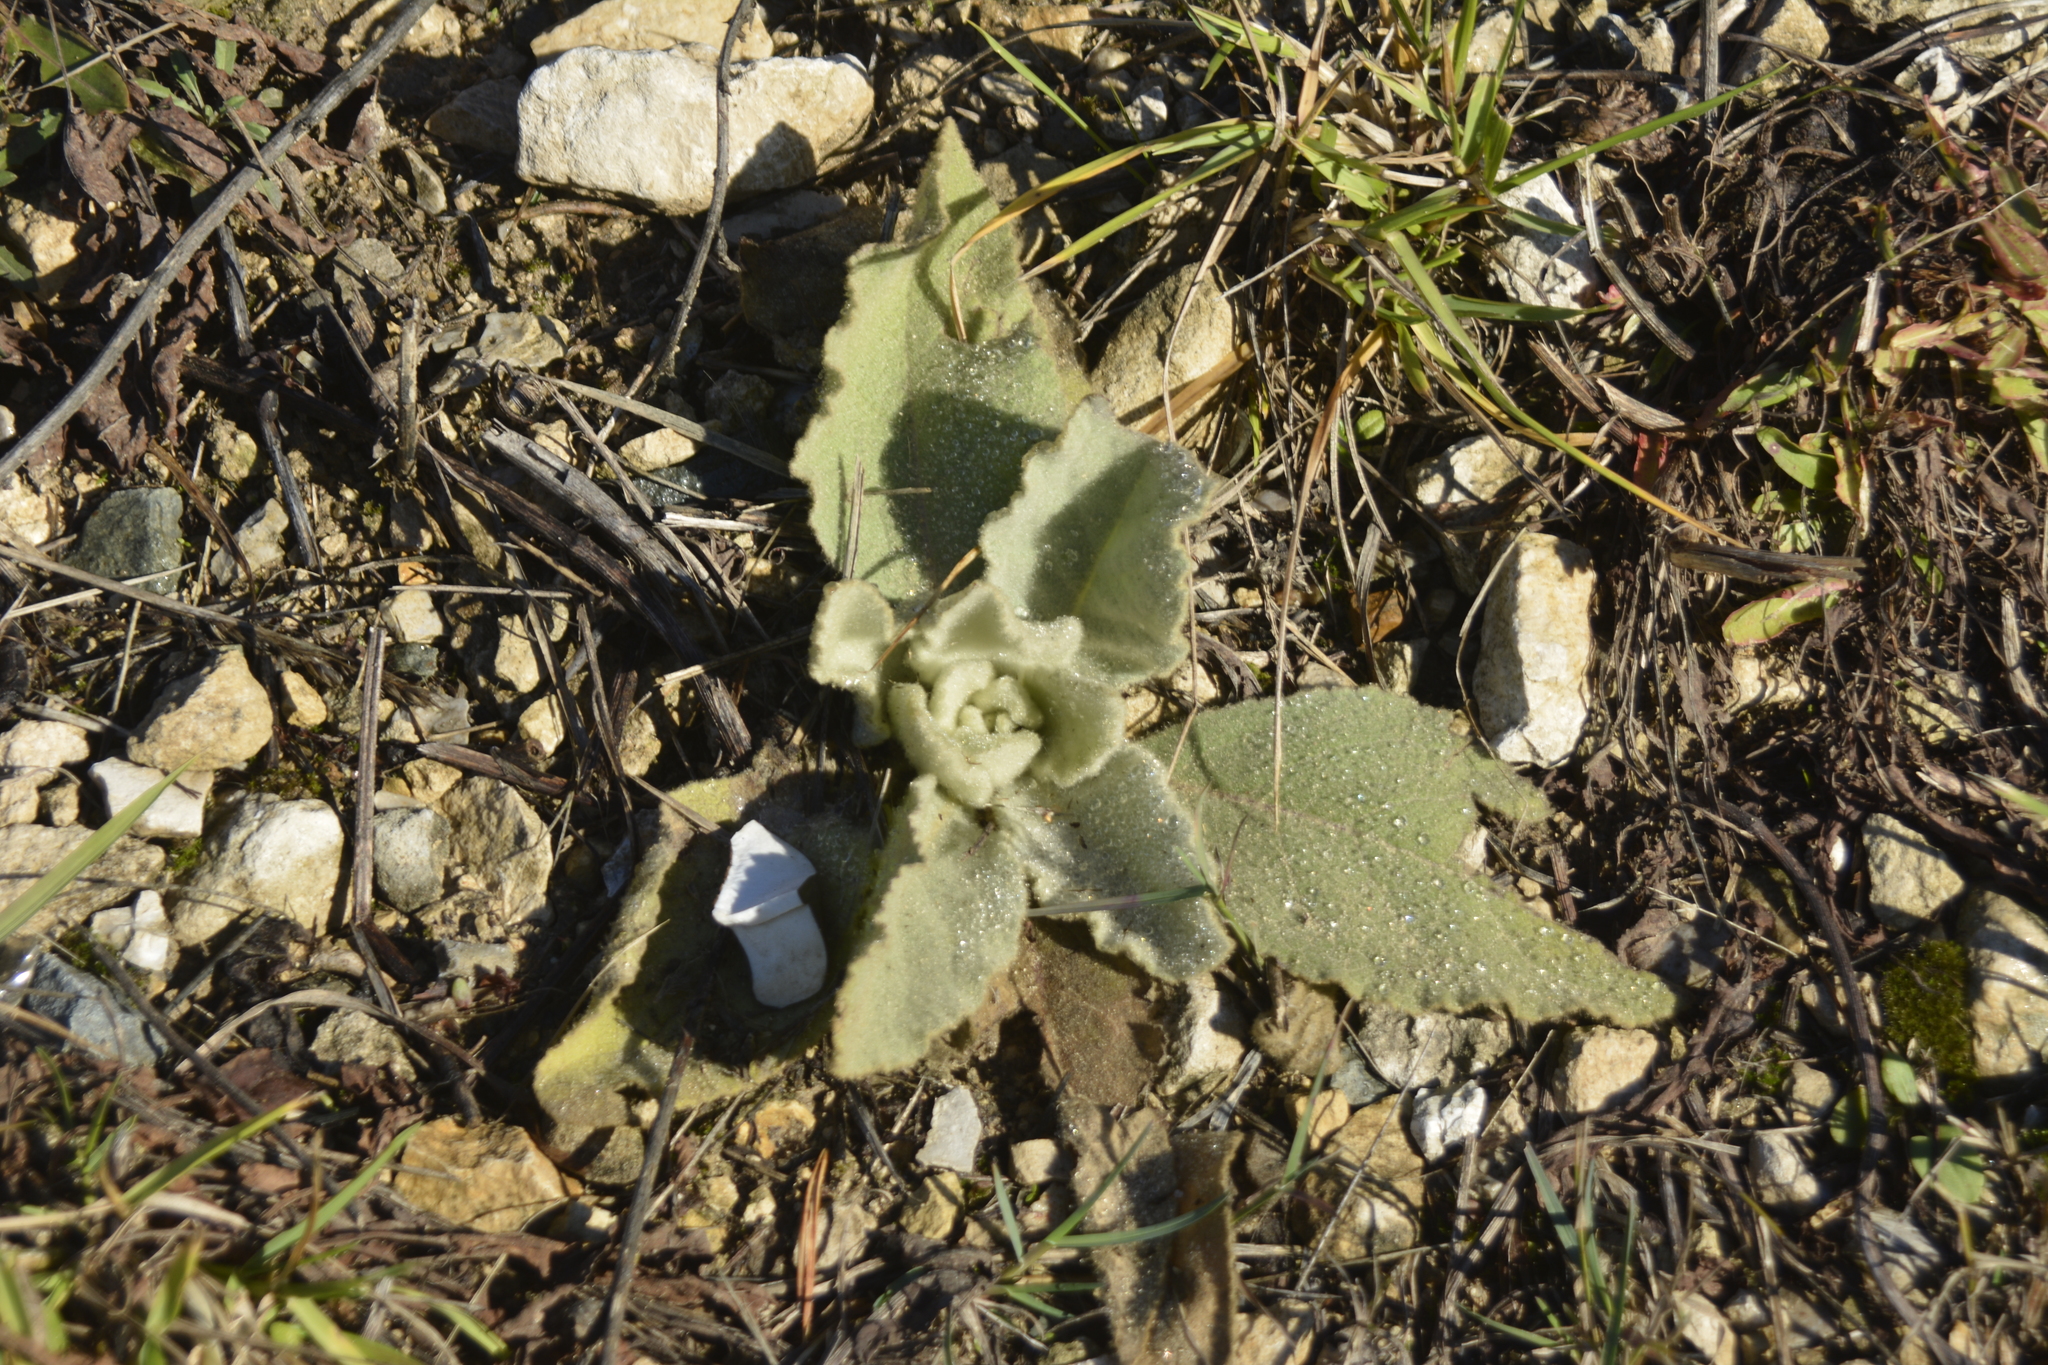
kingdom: Plantae
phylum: Tracheophyta
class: Magnoliopsida
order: Lamiales
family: Scrophulariaceae
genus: Verbascum
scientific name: Verbascum thapsus
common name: Common mullein
